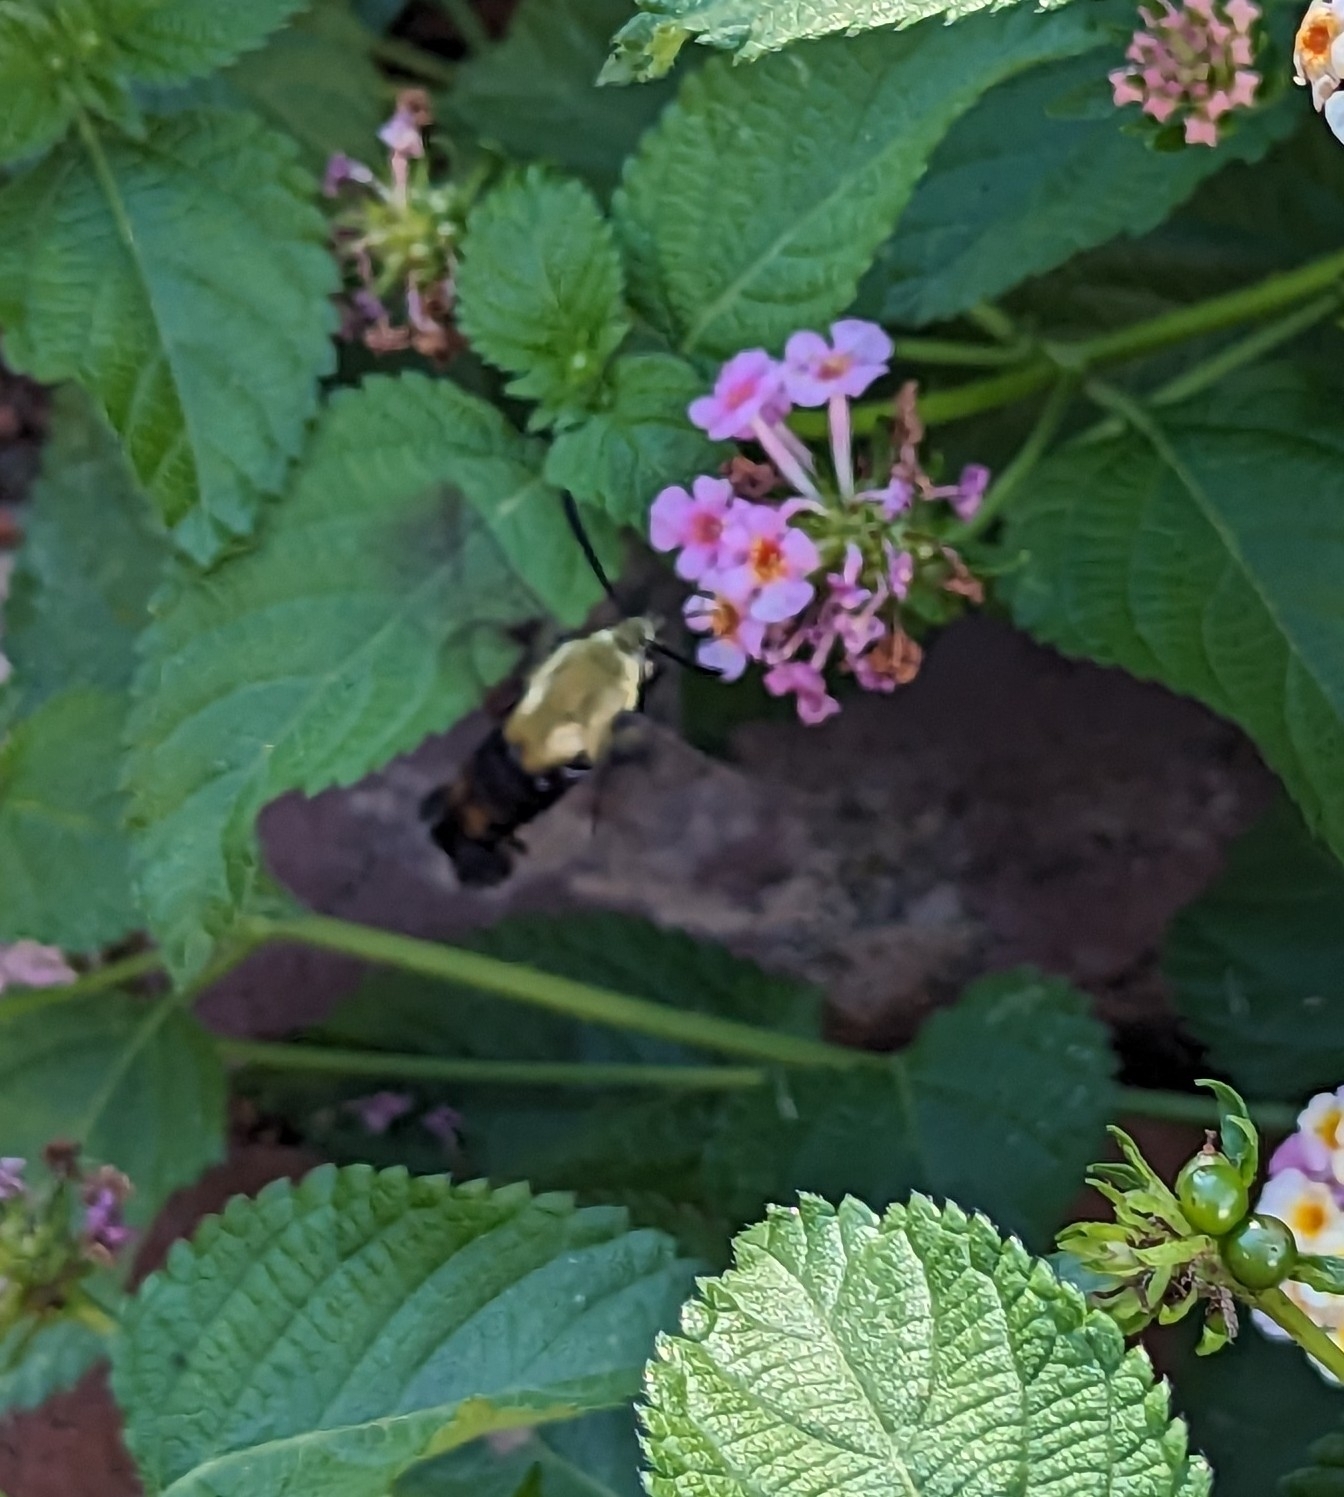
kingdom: Animalia
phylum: Arthropoda
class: Insecta
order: Lepidoptera
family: Sphingidae
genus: Hemaris
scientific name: Hemaris diffinis
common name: Bumblebee moth
